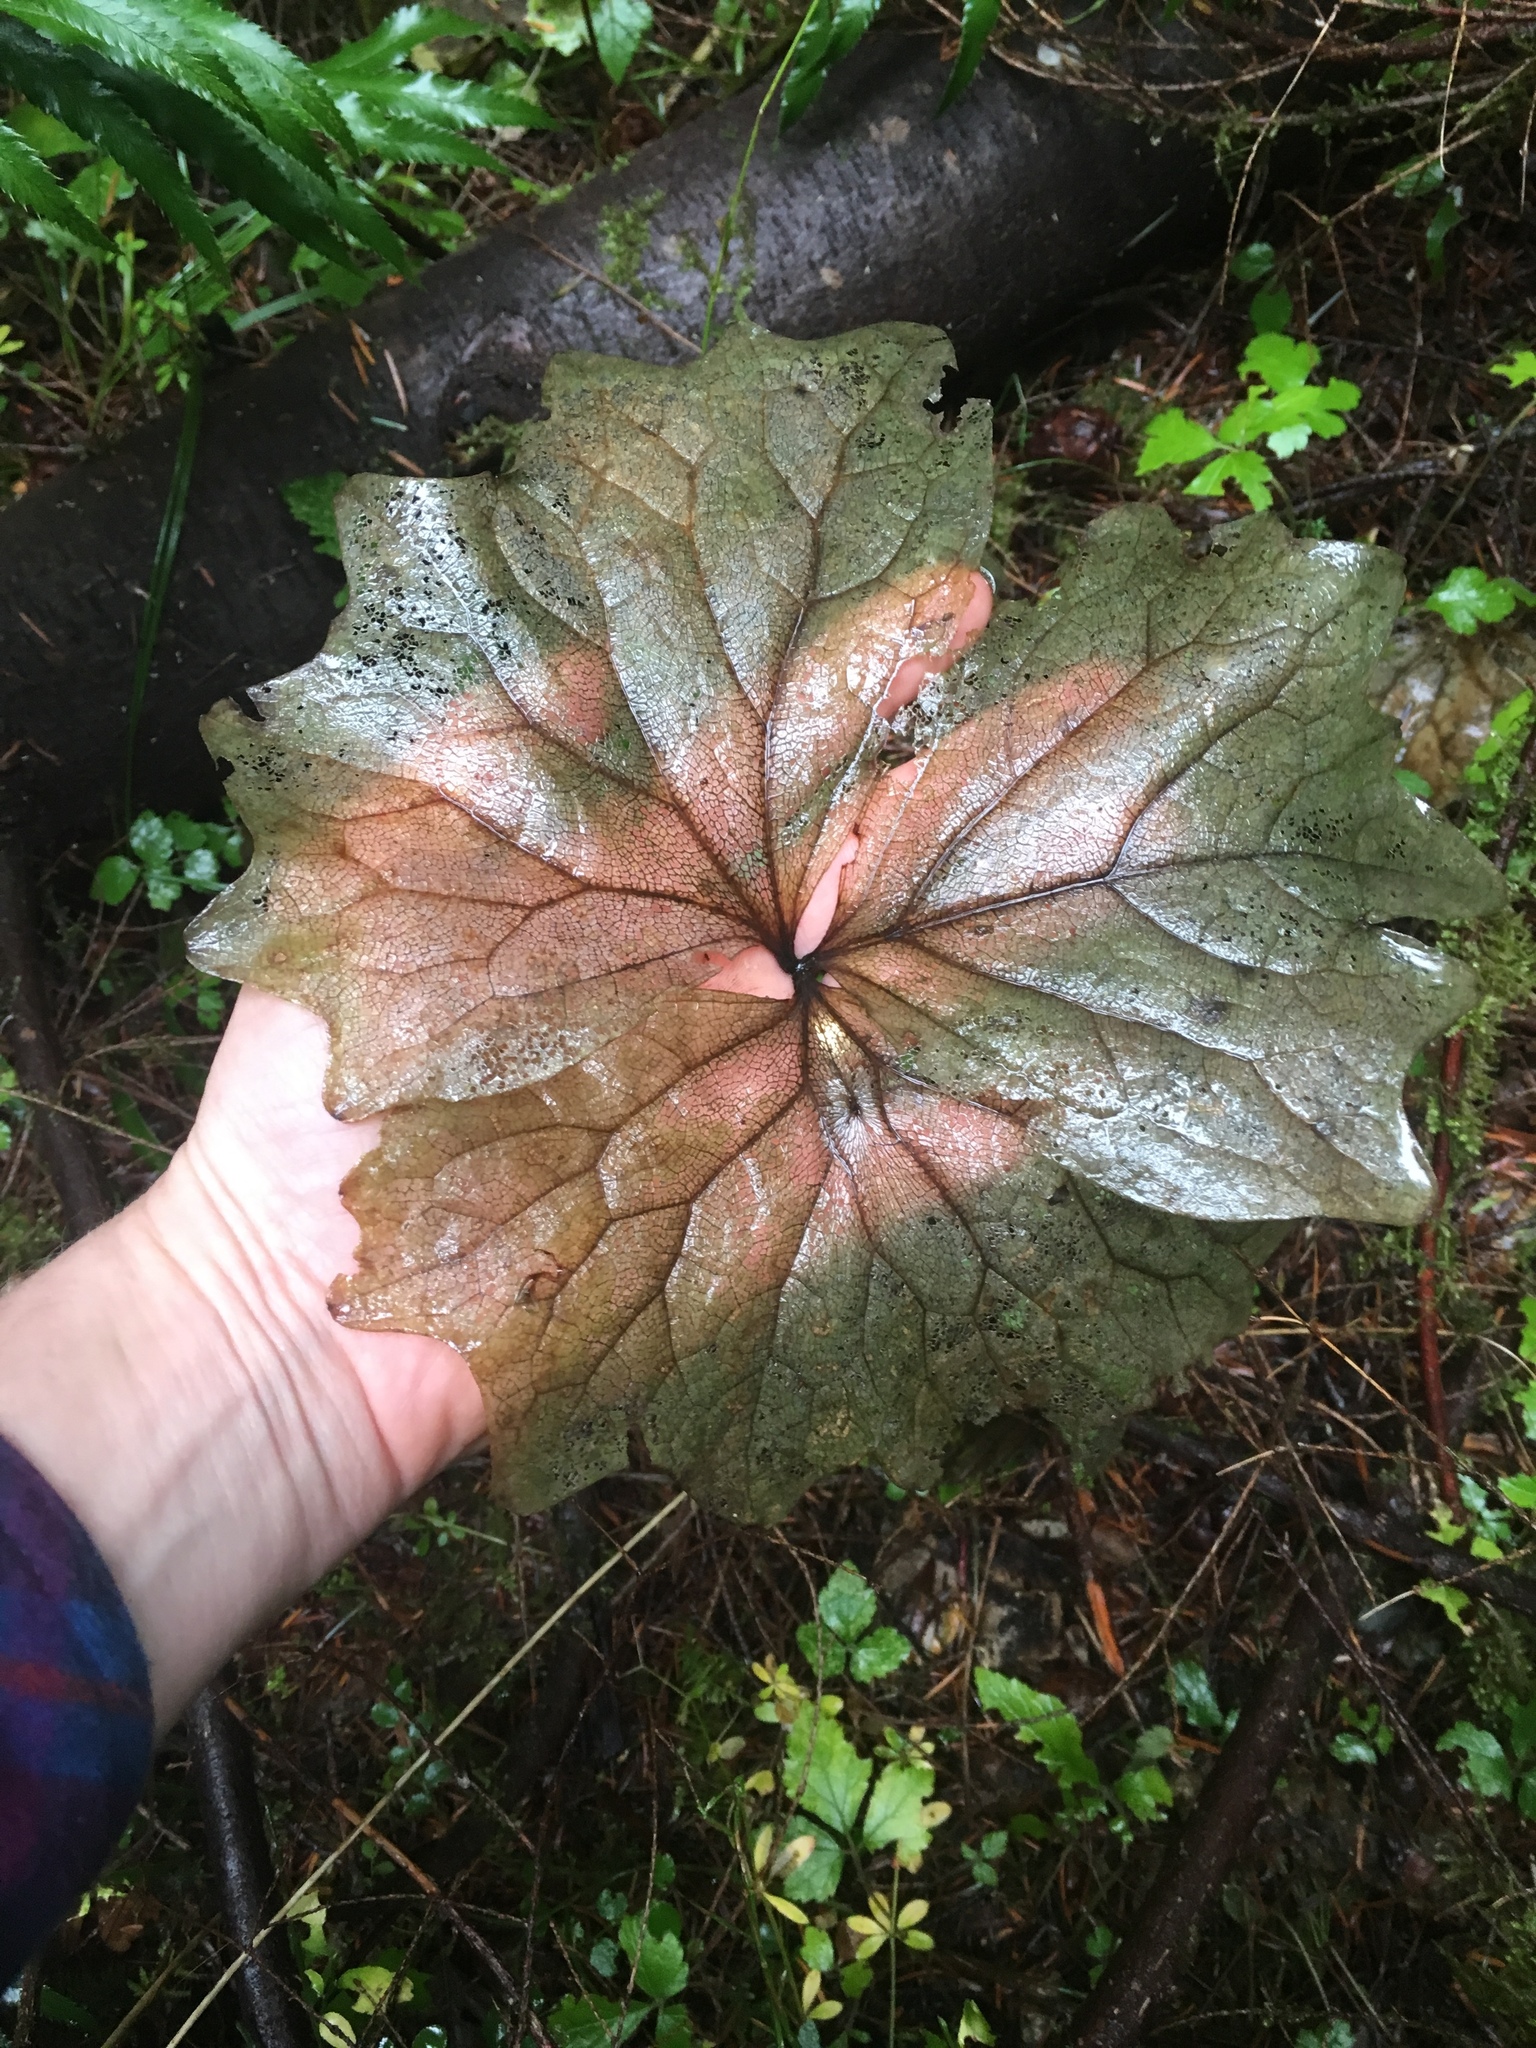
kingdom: Plantae
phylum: Tracheophyta
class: Magnoliopsida
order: Ranunculales
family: Berberidaceae
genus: Achlys
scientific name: Achlys triphylla
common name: Vanilla-leaf
